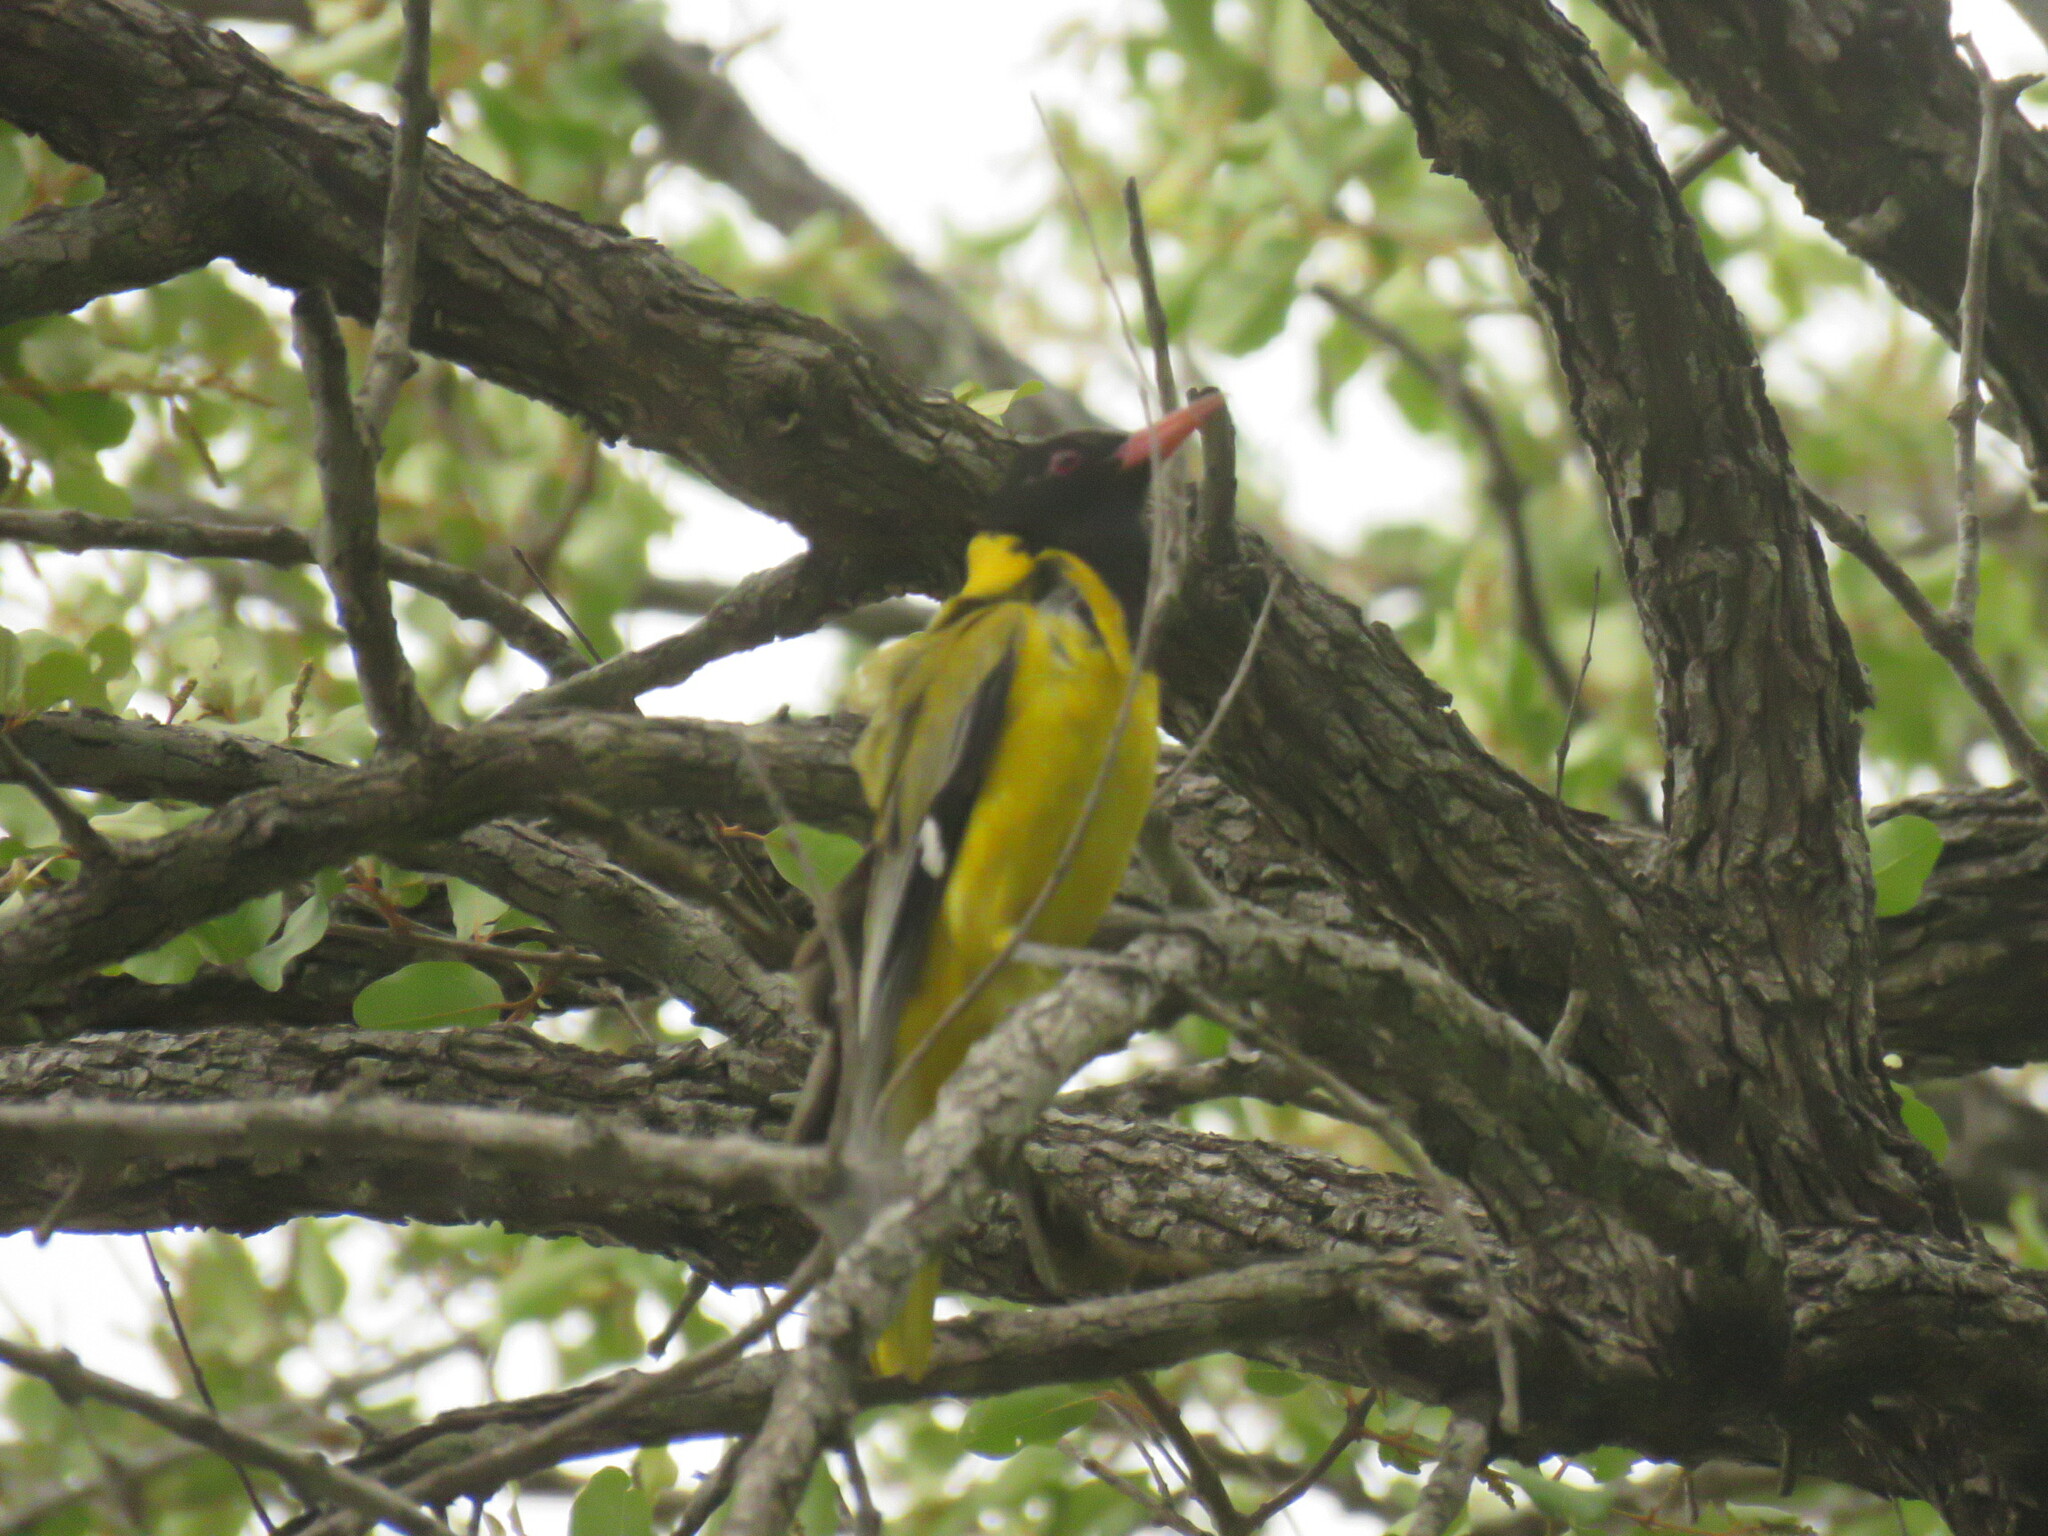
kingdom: Animalia
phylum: Chordata
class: Aves
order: Passeriformes
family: Oriolidae
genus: Oriolus
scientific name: Oriolus larvatus
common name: Black-headed oriole
